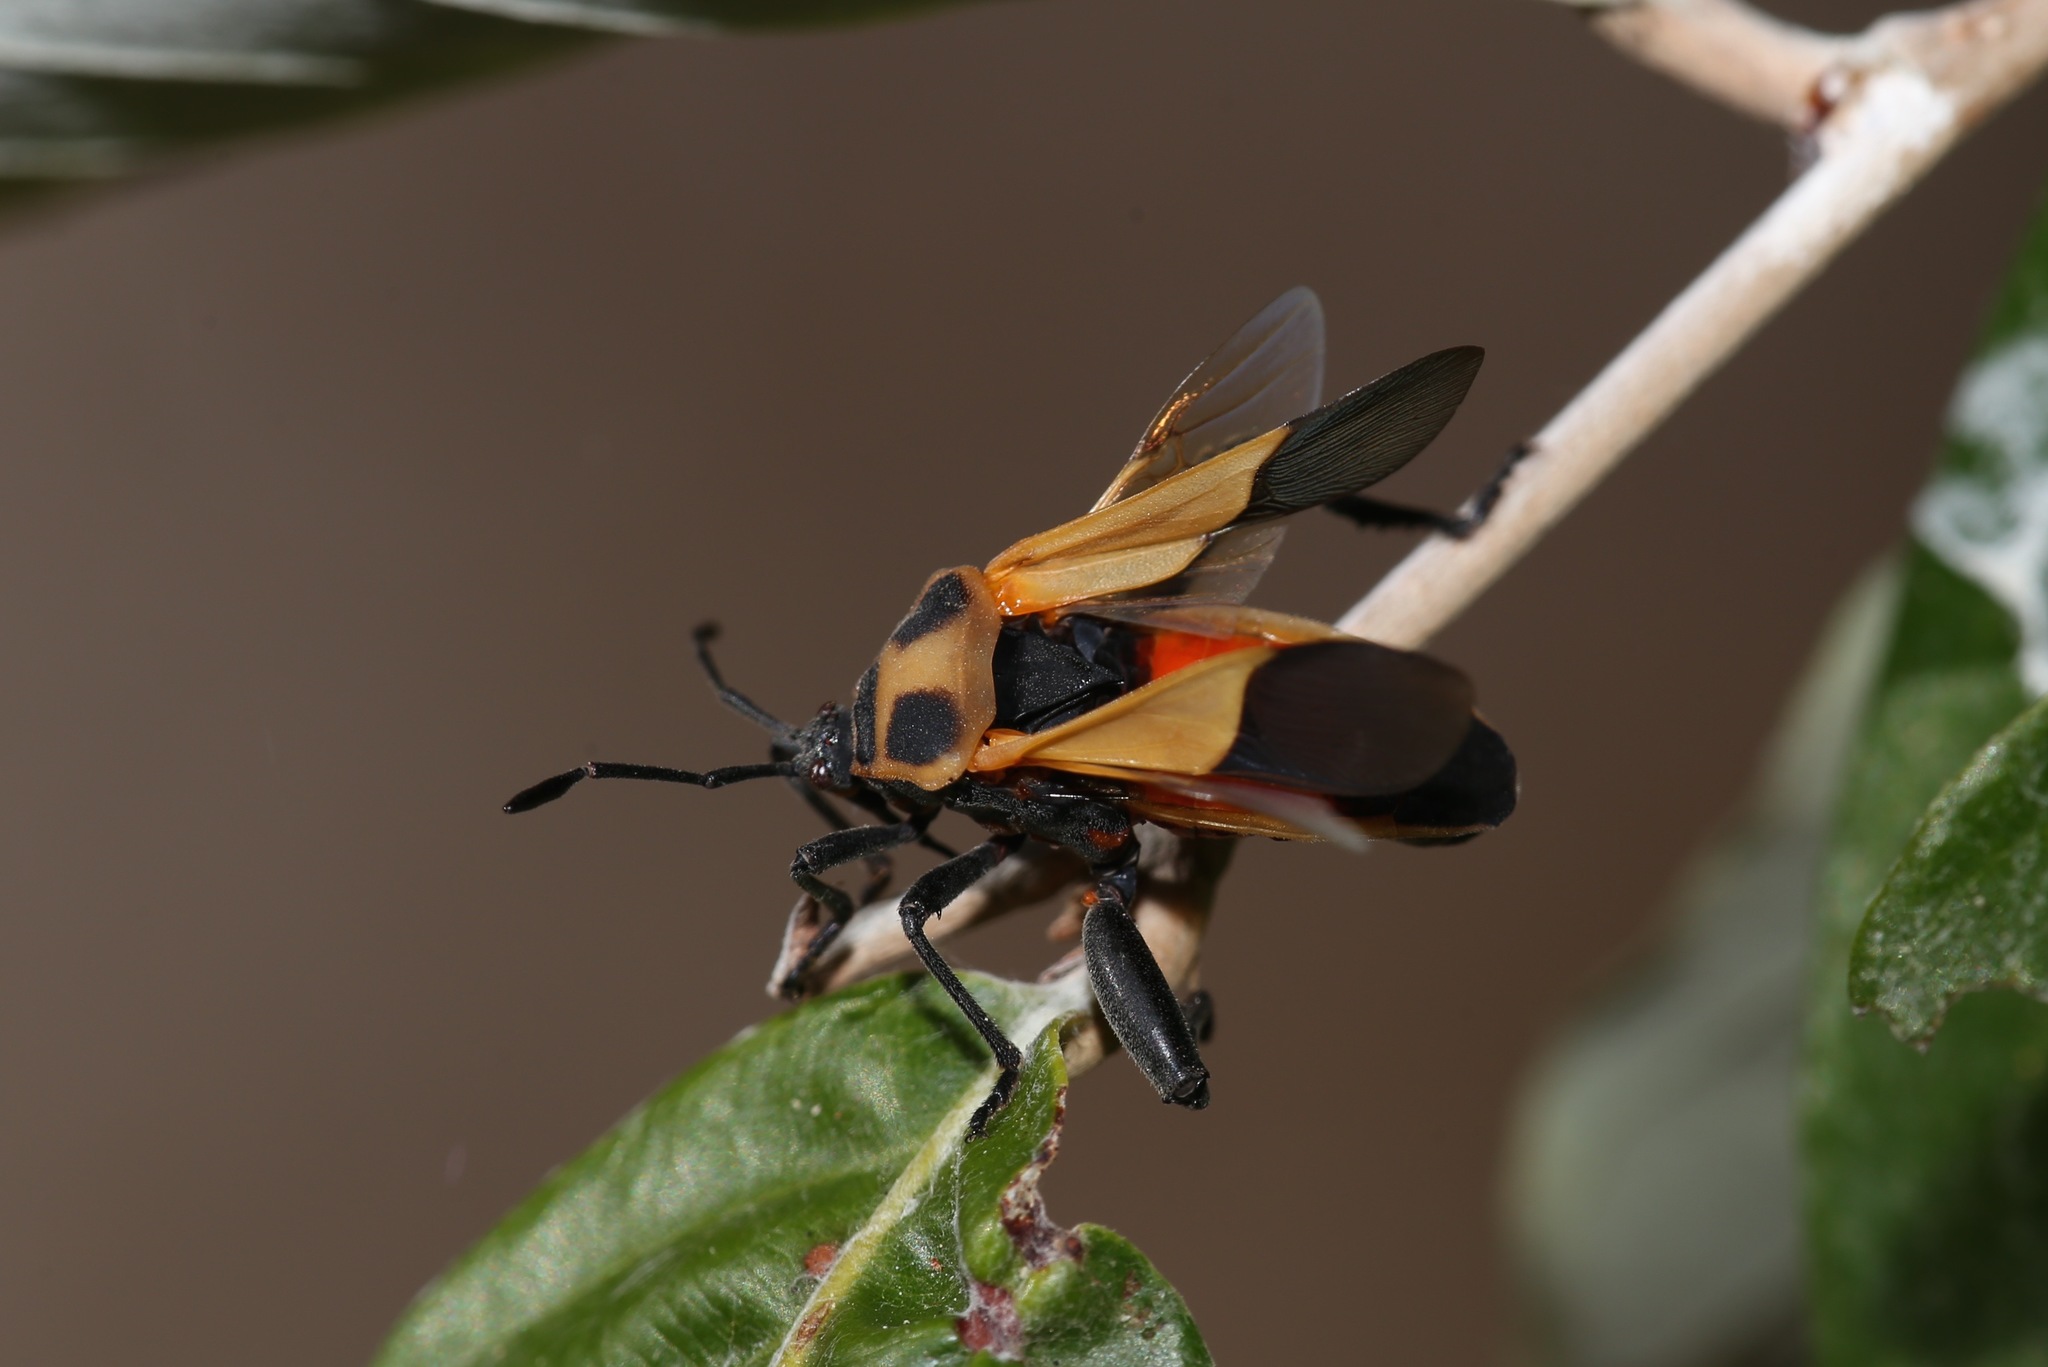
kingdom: Animalia
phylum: Arthropoda
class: Insecta
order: Hemiptera
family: Coreidae
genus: Sagotylus
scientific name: Sagotylus confluens
